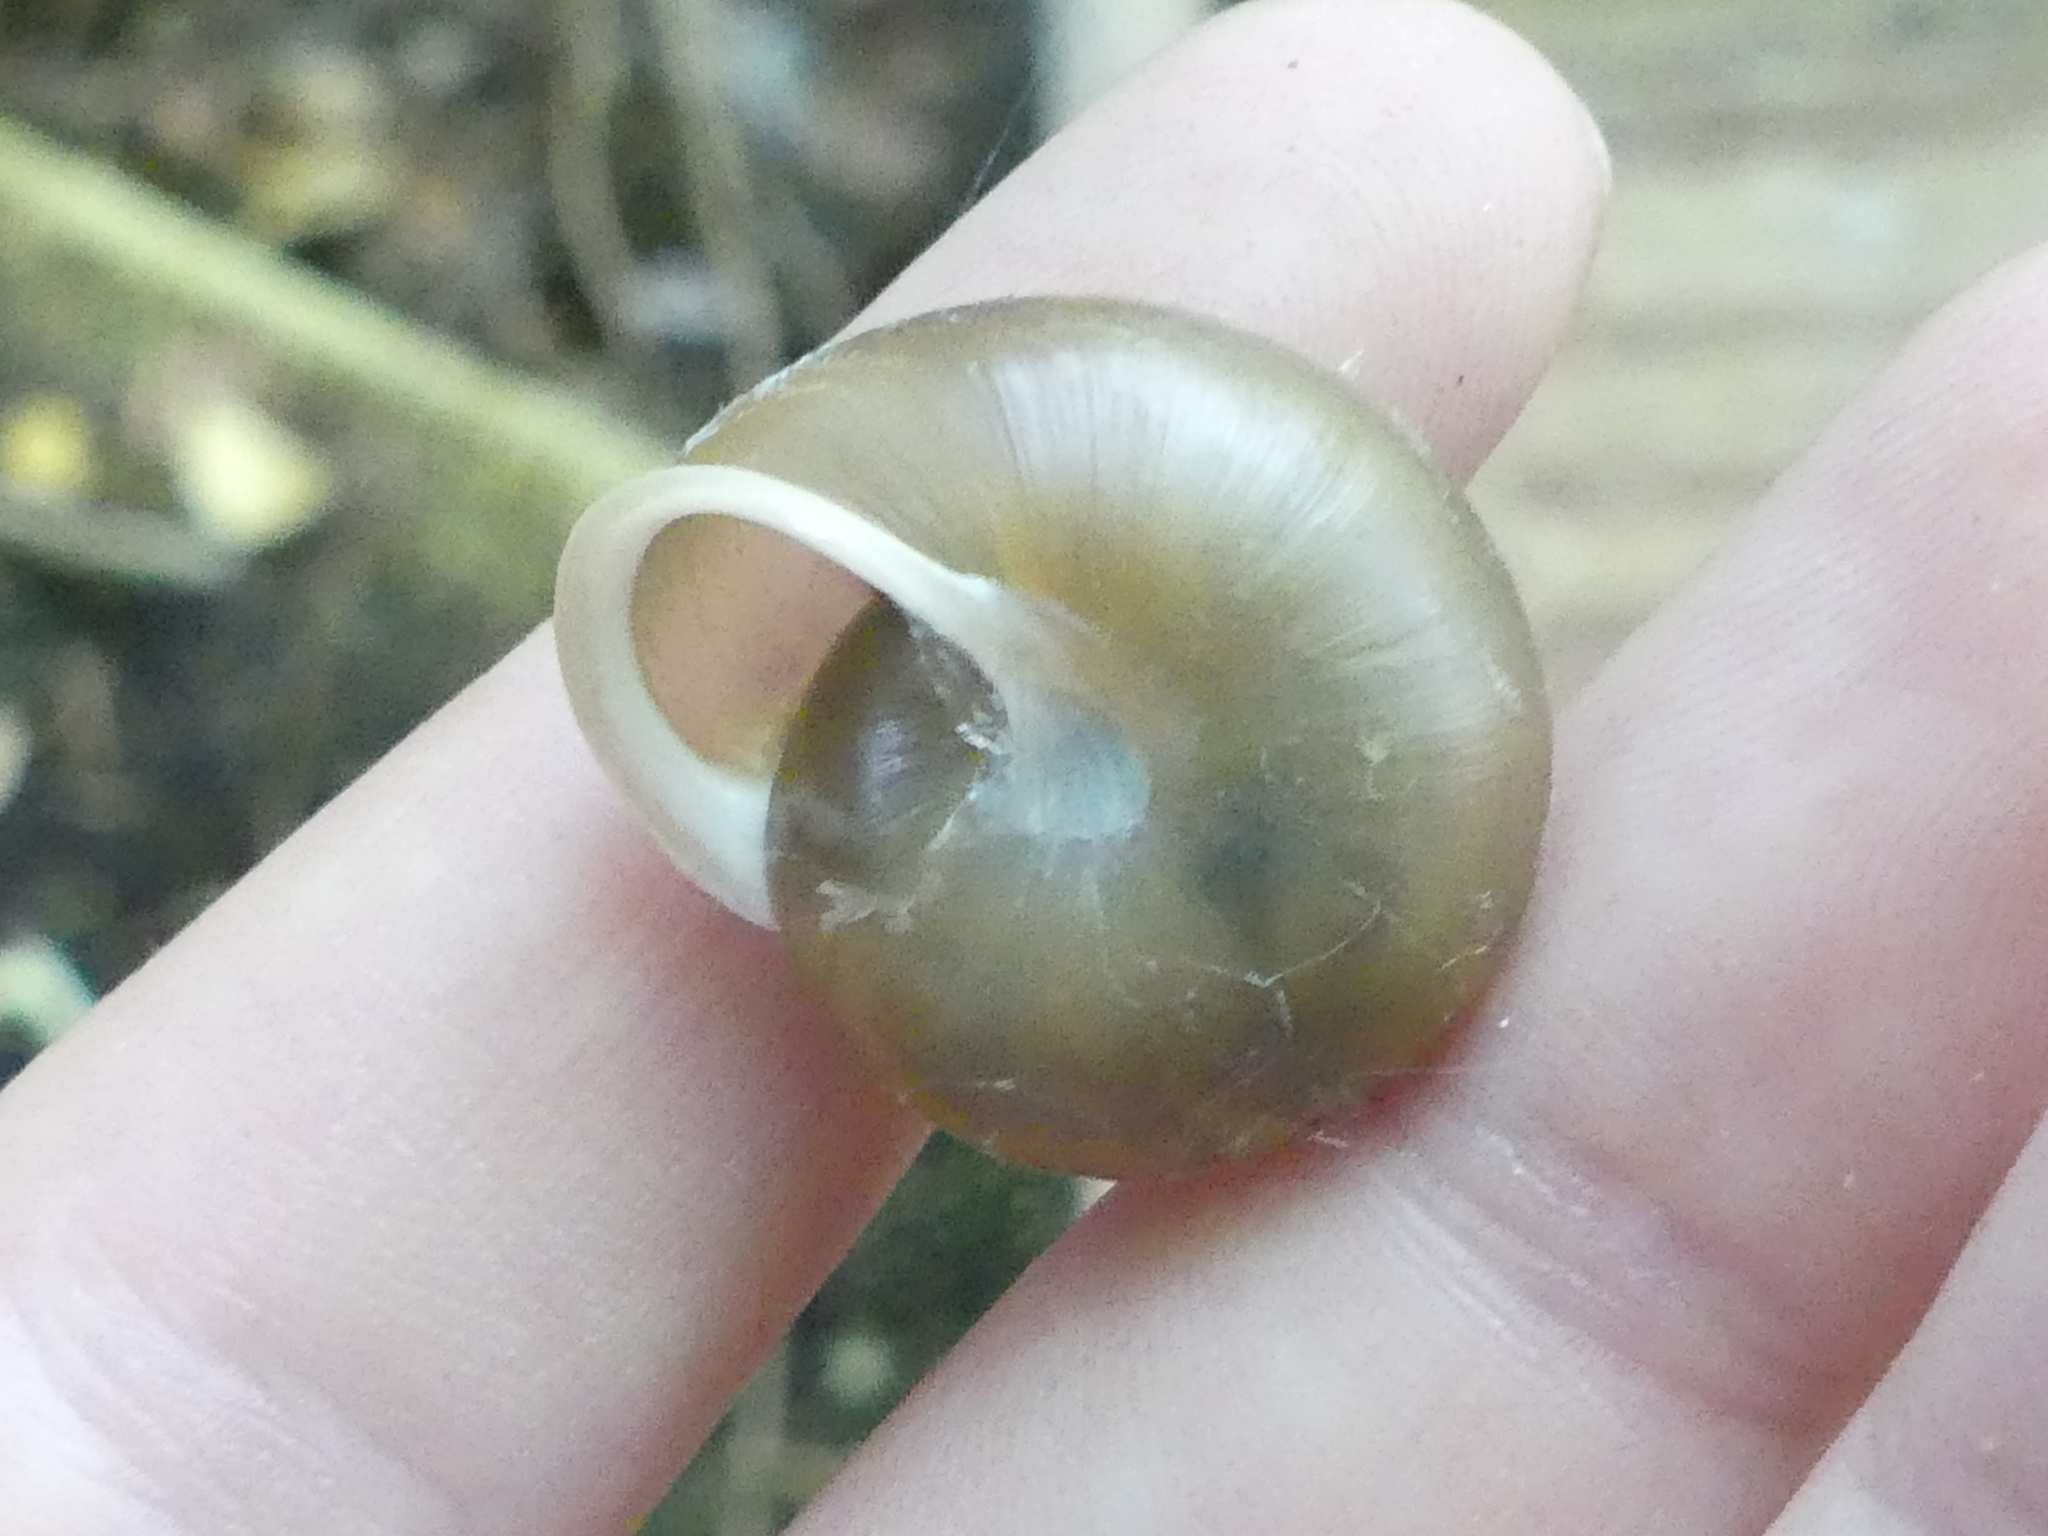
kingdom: Animalia
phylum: Mollusca
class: Gastropoda
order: Stylommatophora
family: Polygyridae
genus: Mesodon
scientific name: Mesodon thyroidus
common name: White-lip globe
